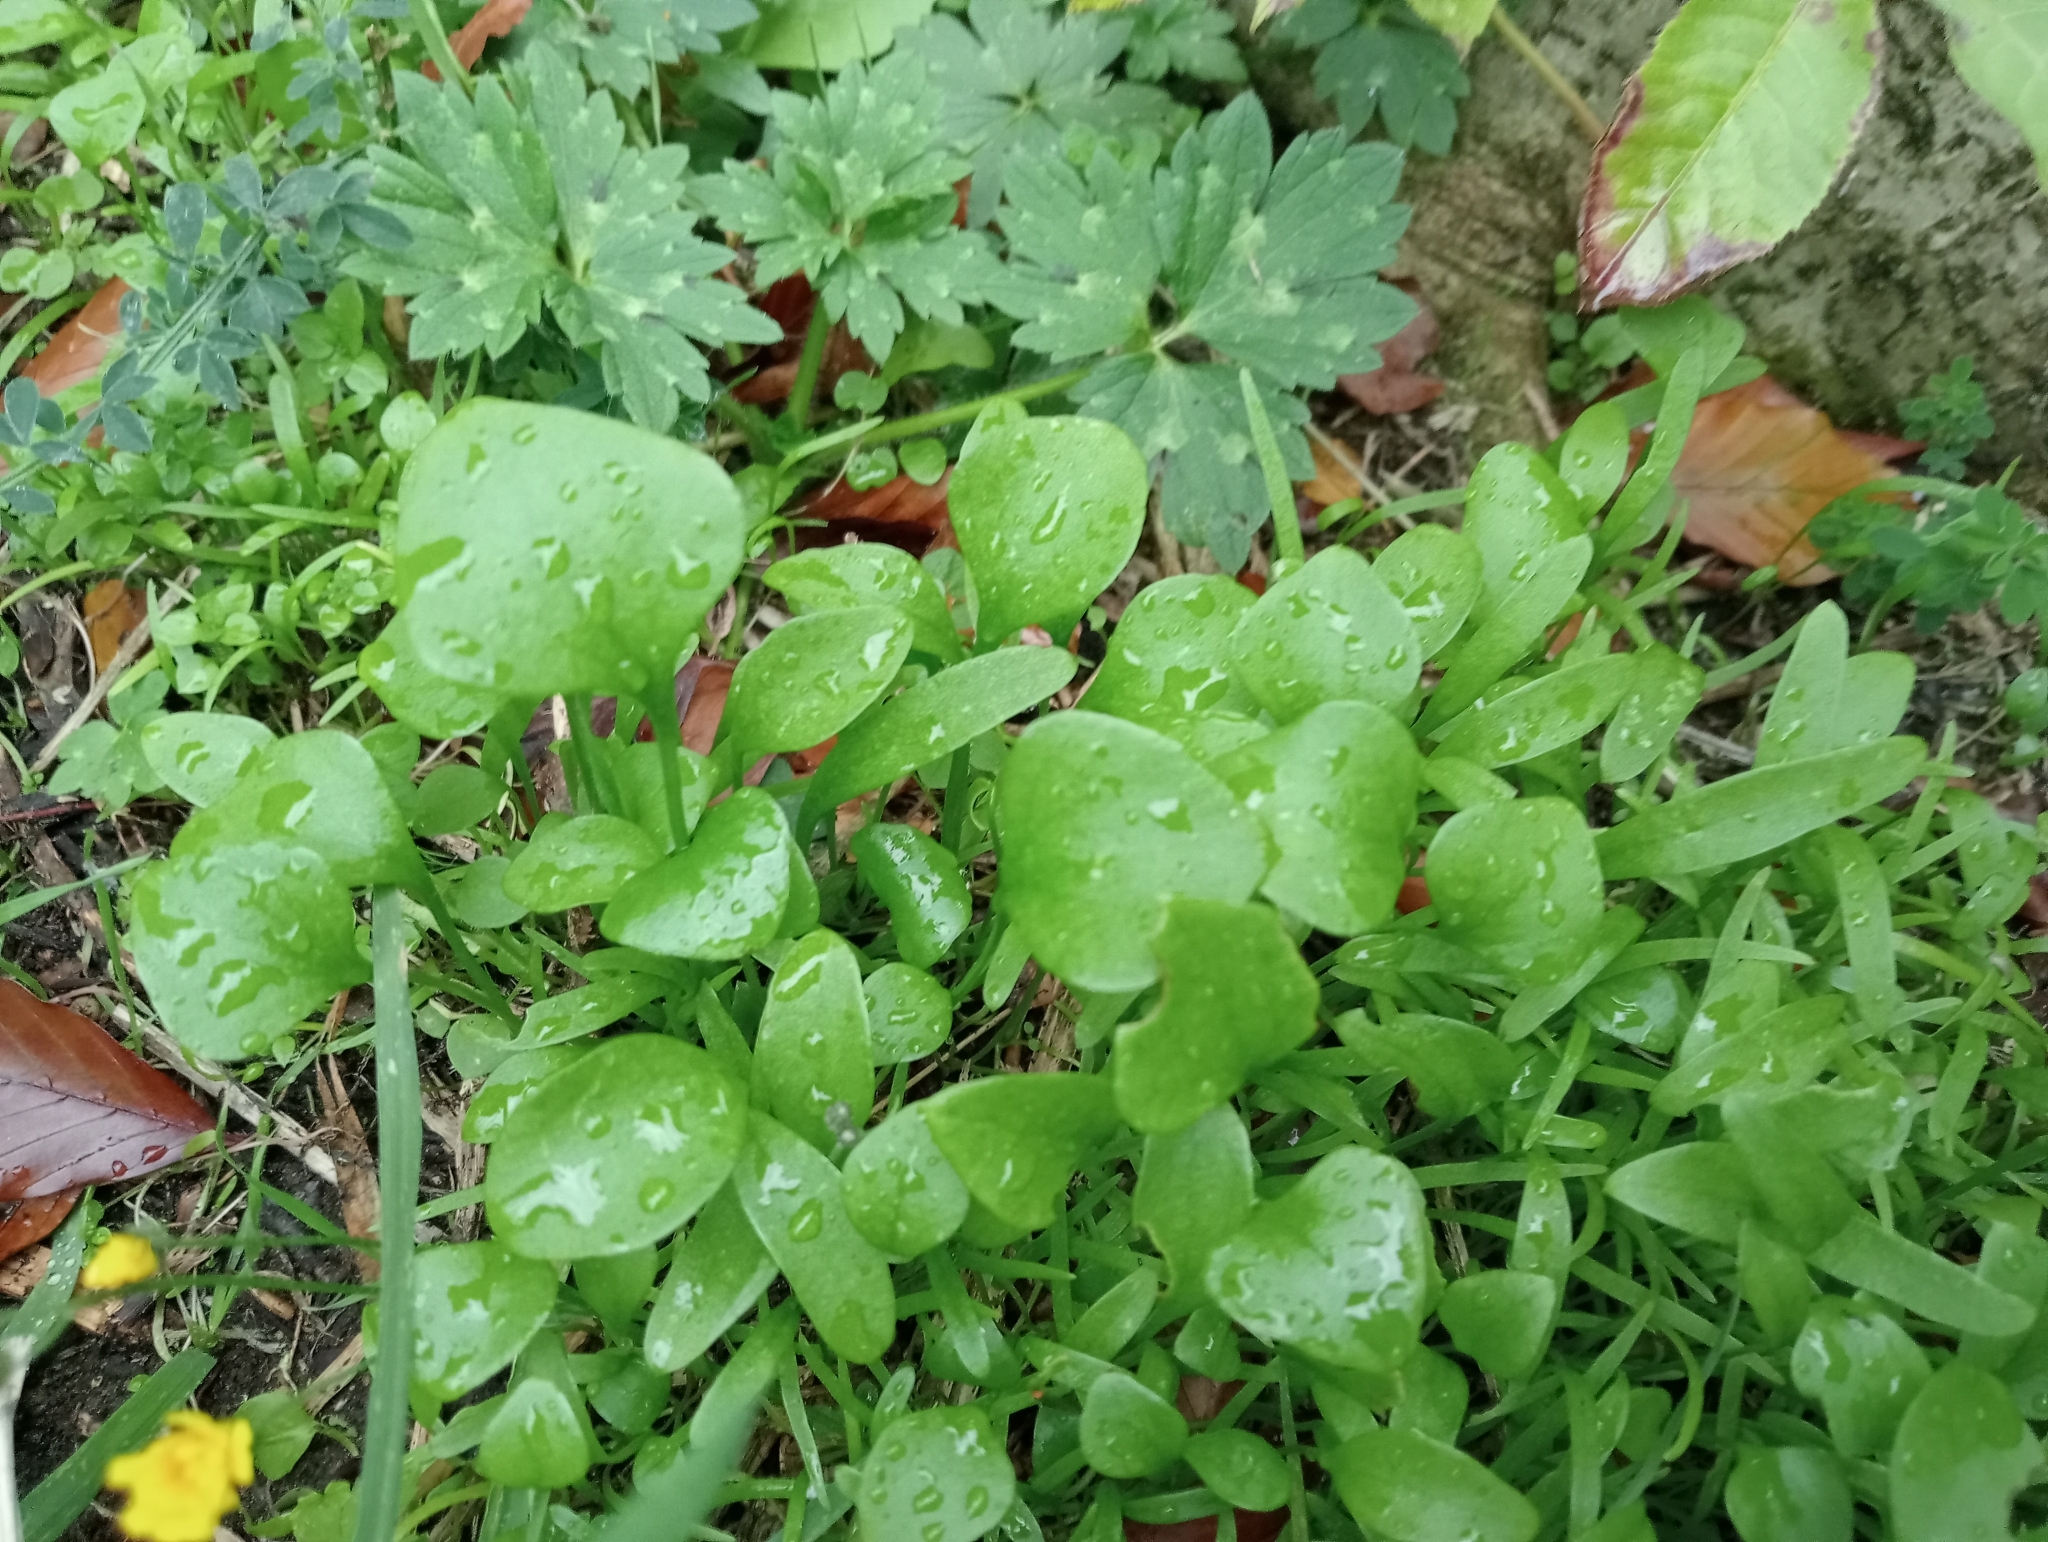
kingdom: Plantae
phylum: Tracheophyta
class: Magnoliopsida
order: Caryophyllales
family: Montiaceae
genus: Claytonia
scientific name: Claytonia perfoliata
